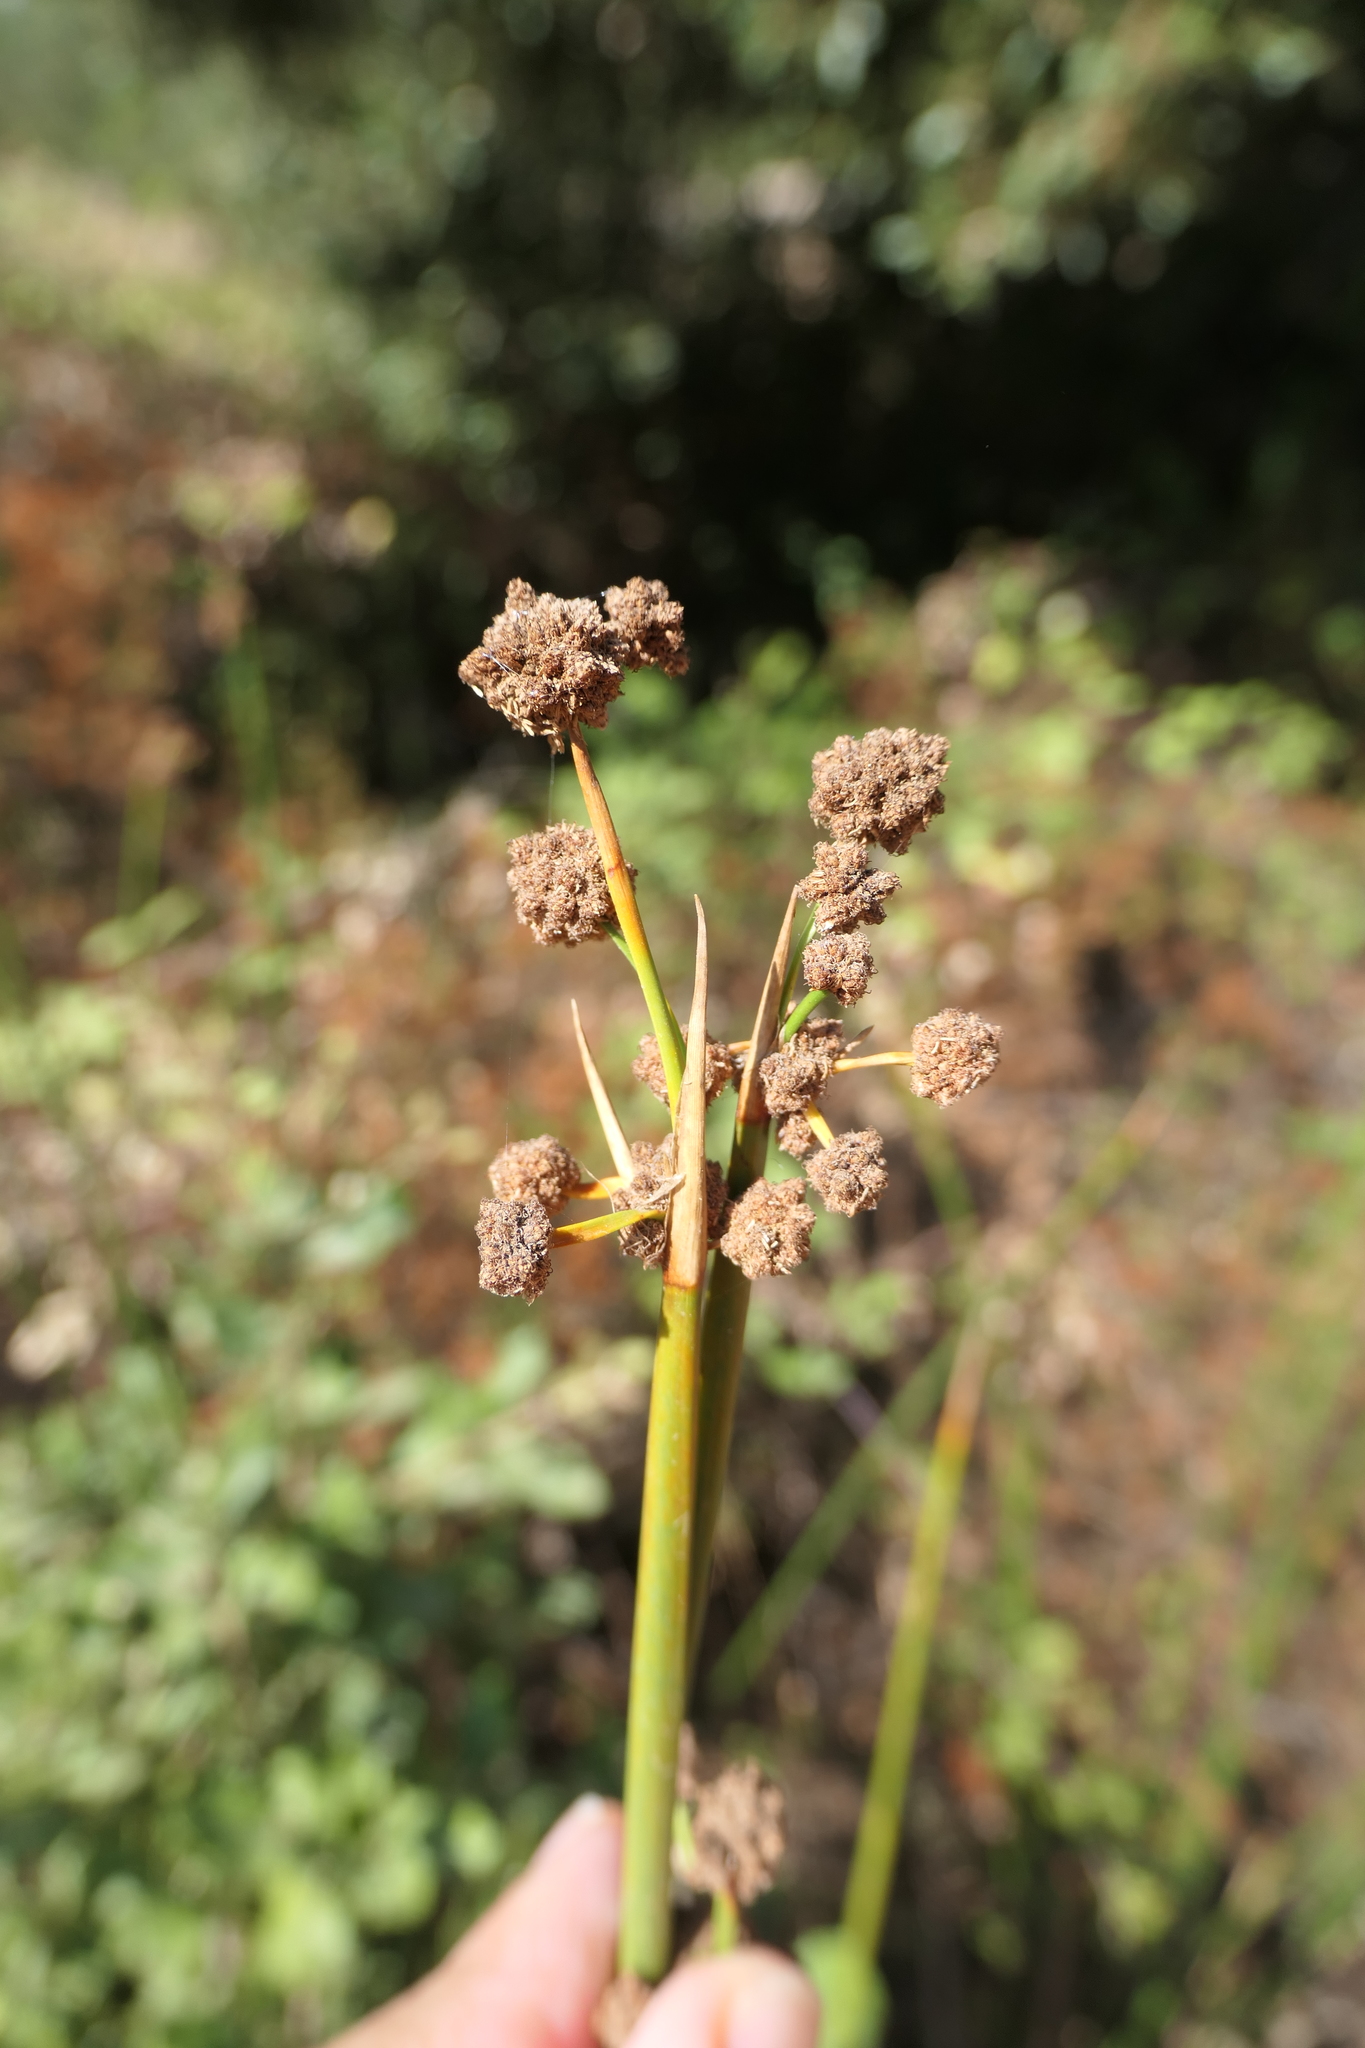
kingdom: Plantae
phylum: Tracheophyta
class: Liliopsida
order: Poales
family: Cyperaceae
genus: Scirpoides
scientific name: Scirpoides holoschoenus
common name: Round-headed club-rush
